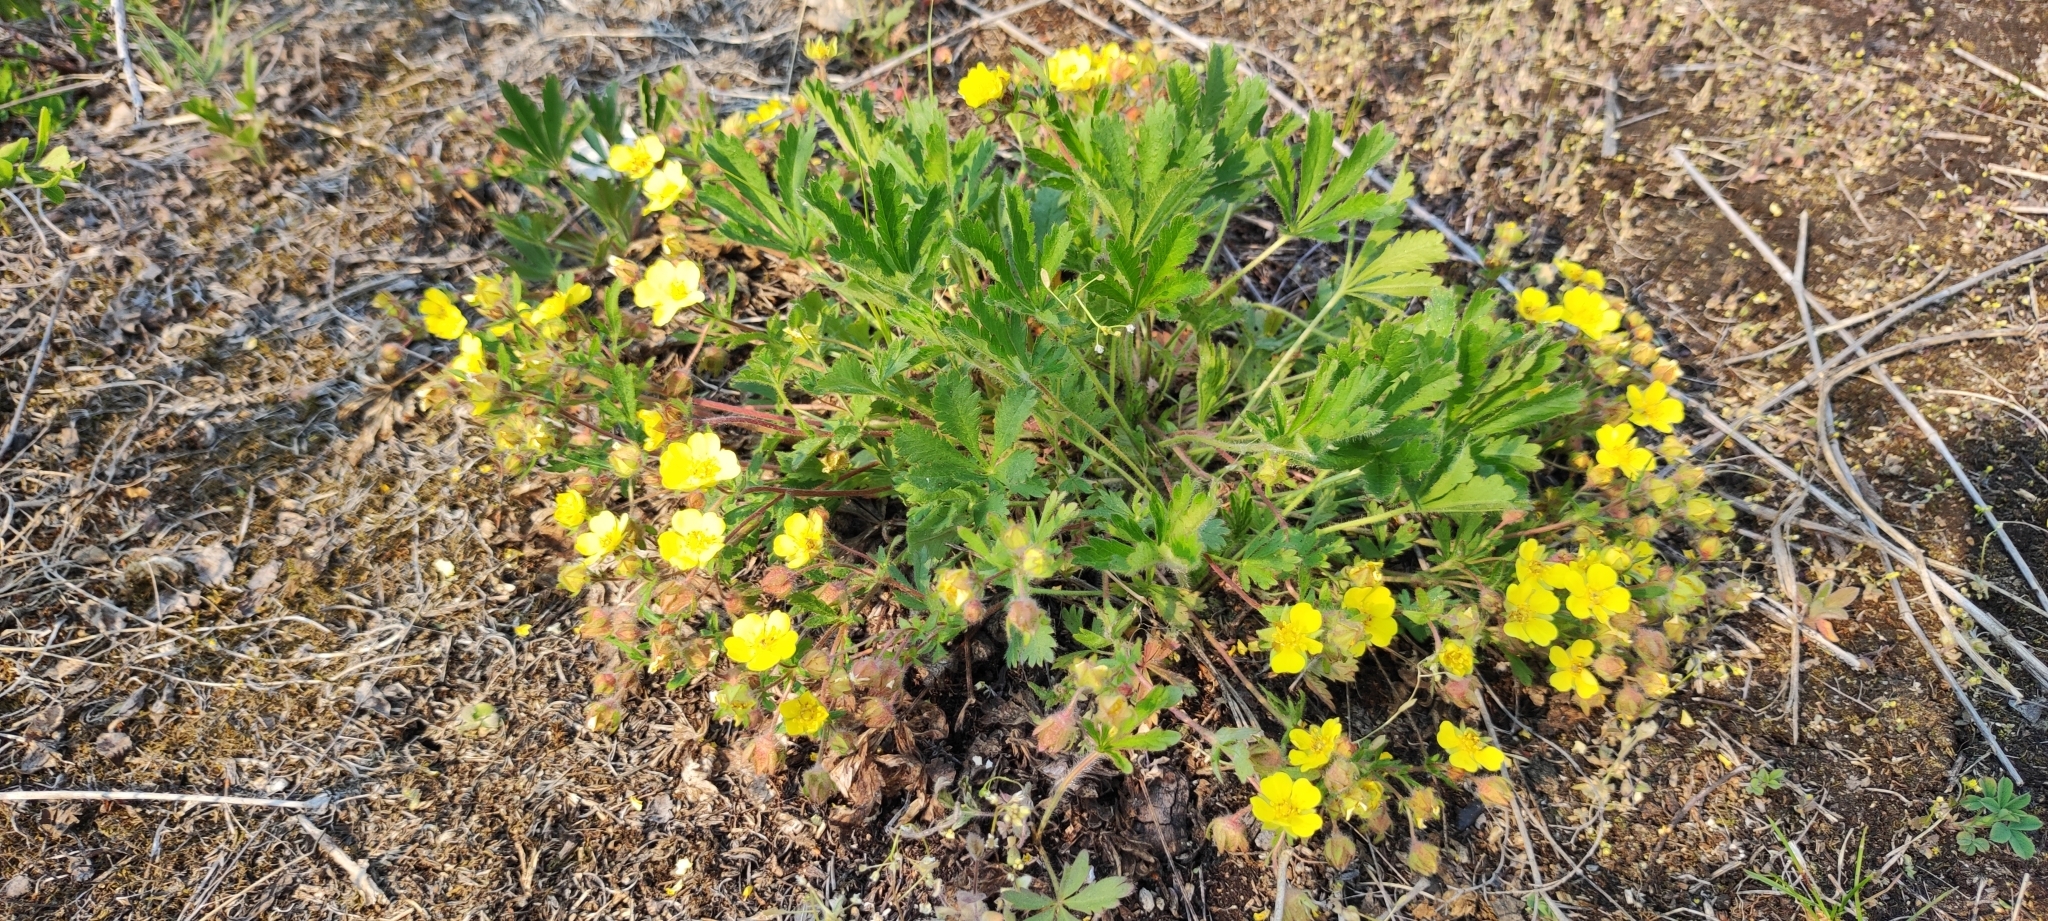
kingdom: Plantae
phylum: Tracheophyta
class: Magnoliopsida
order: Rosales
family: Rosaceae
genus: Potentilla
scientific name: Potentilla humifusa
